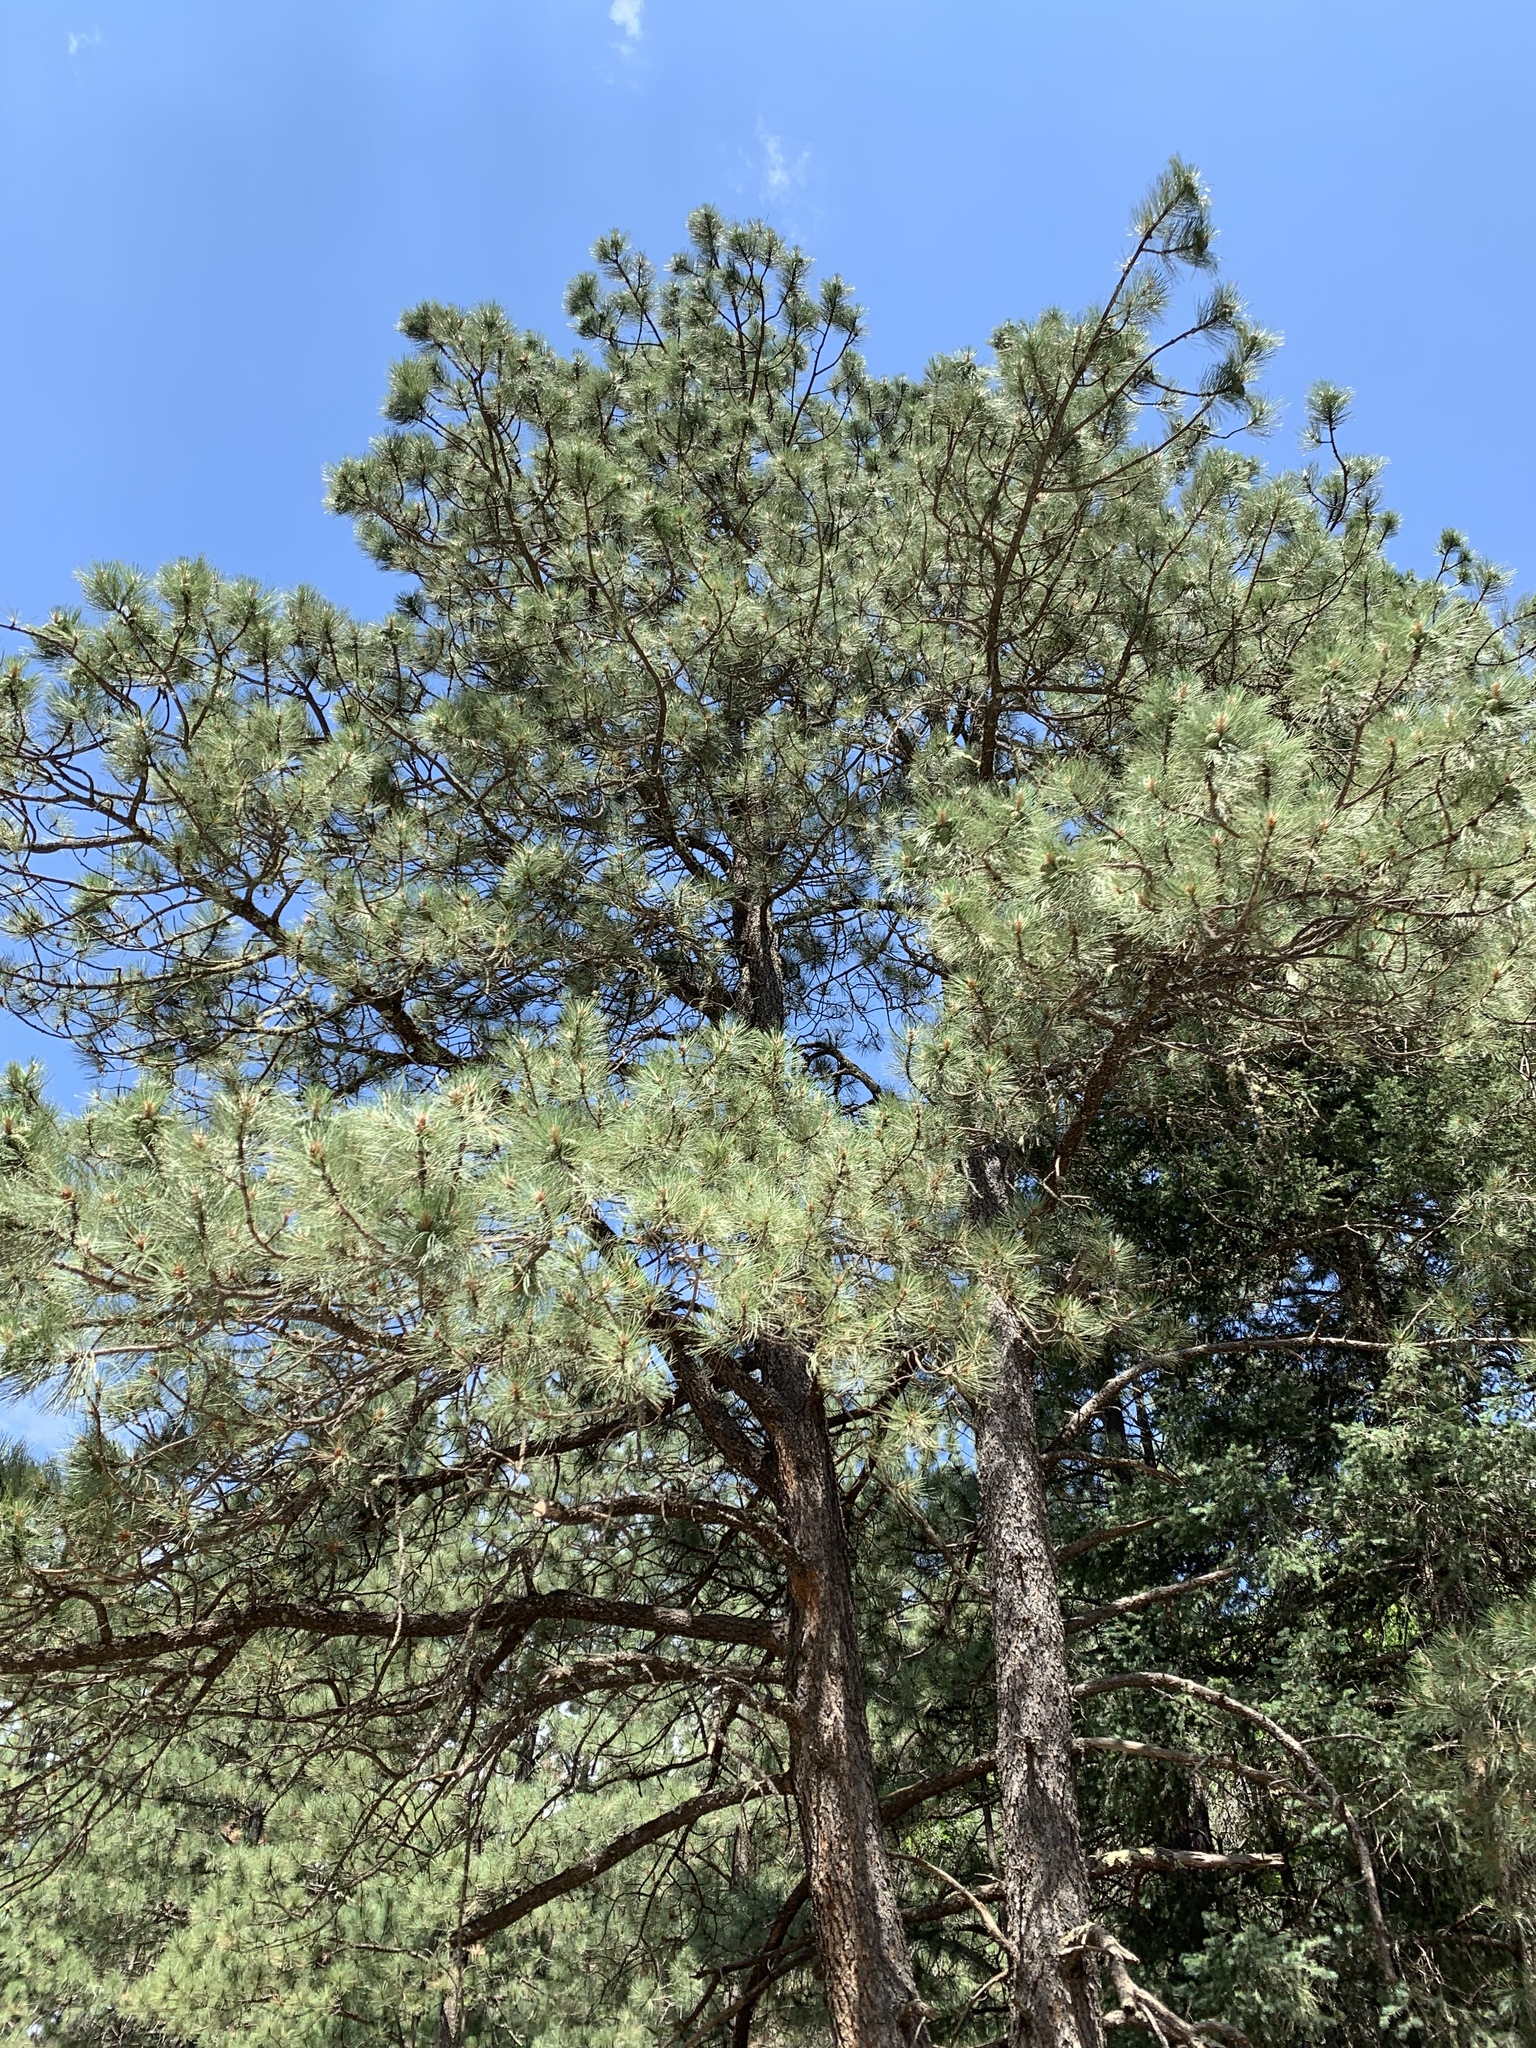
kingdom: Plantae
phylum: Tracheophyta
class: Pinopsida
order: Pinales
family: Pinaceae
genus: Pinus
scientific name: Pinus ponderosa
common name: Western yellow-pine
